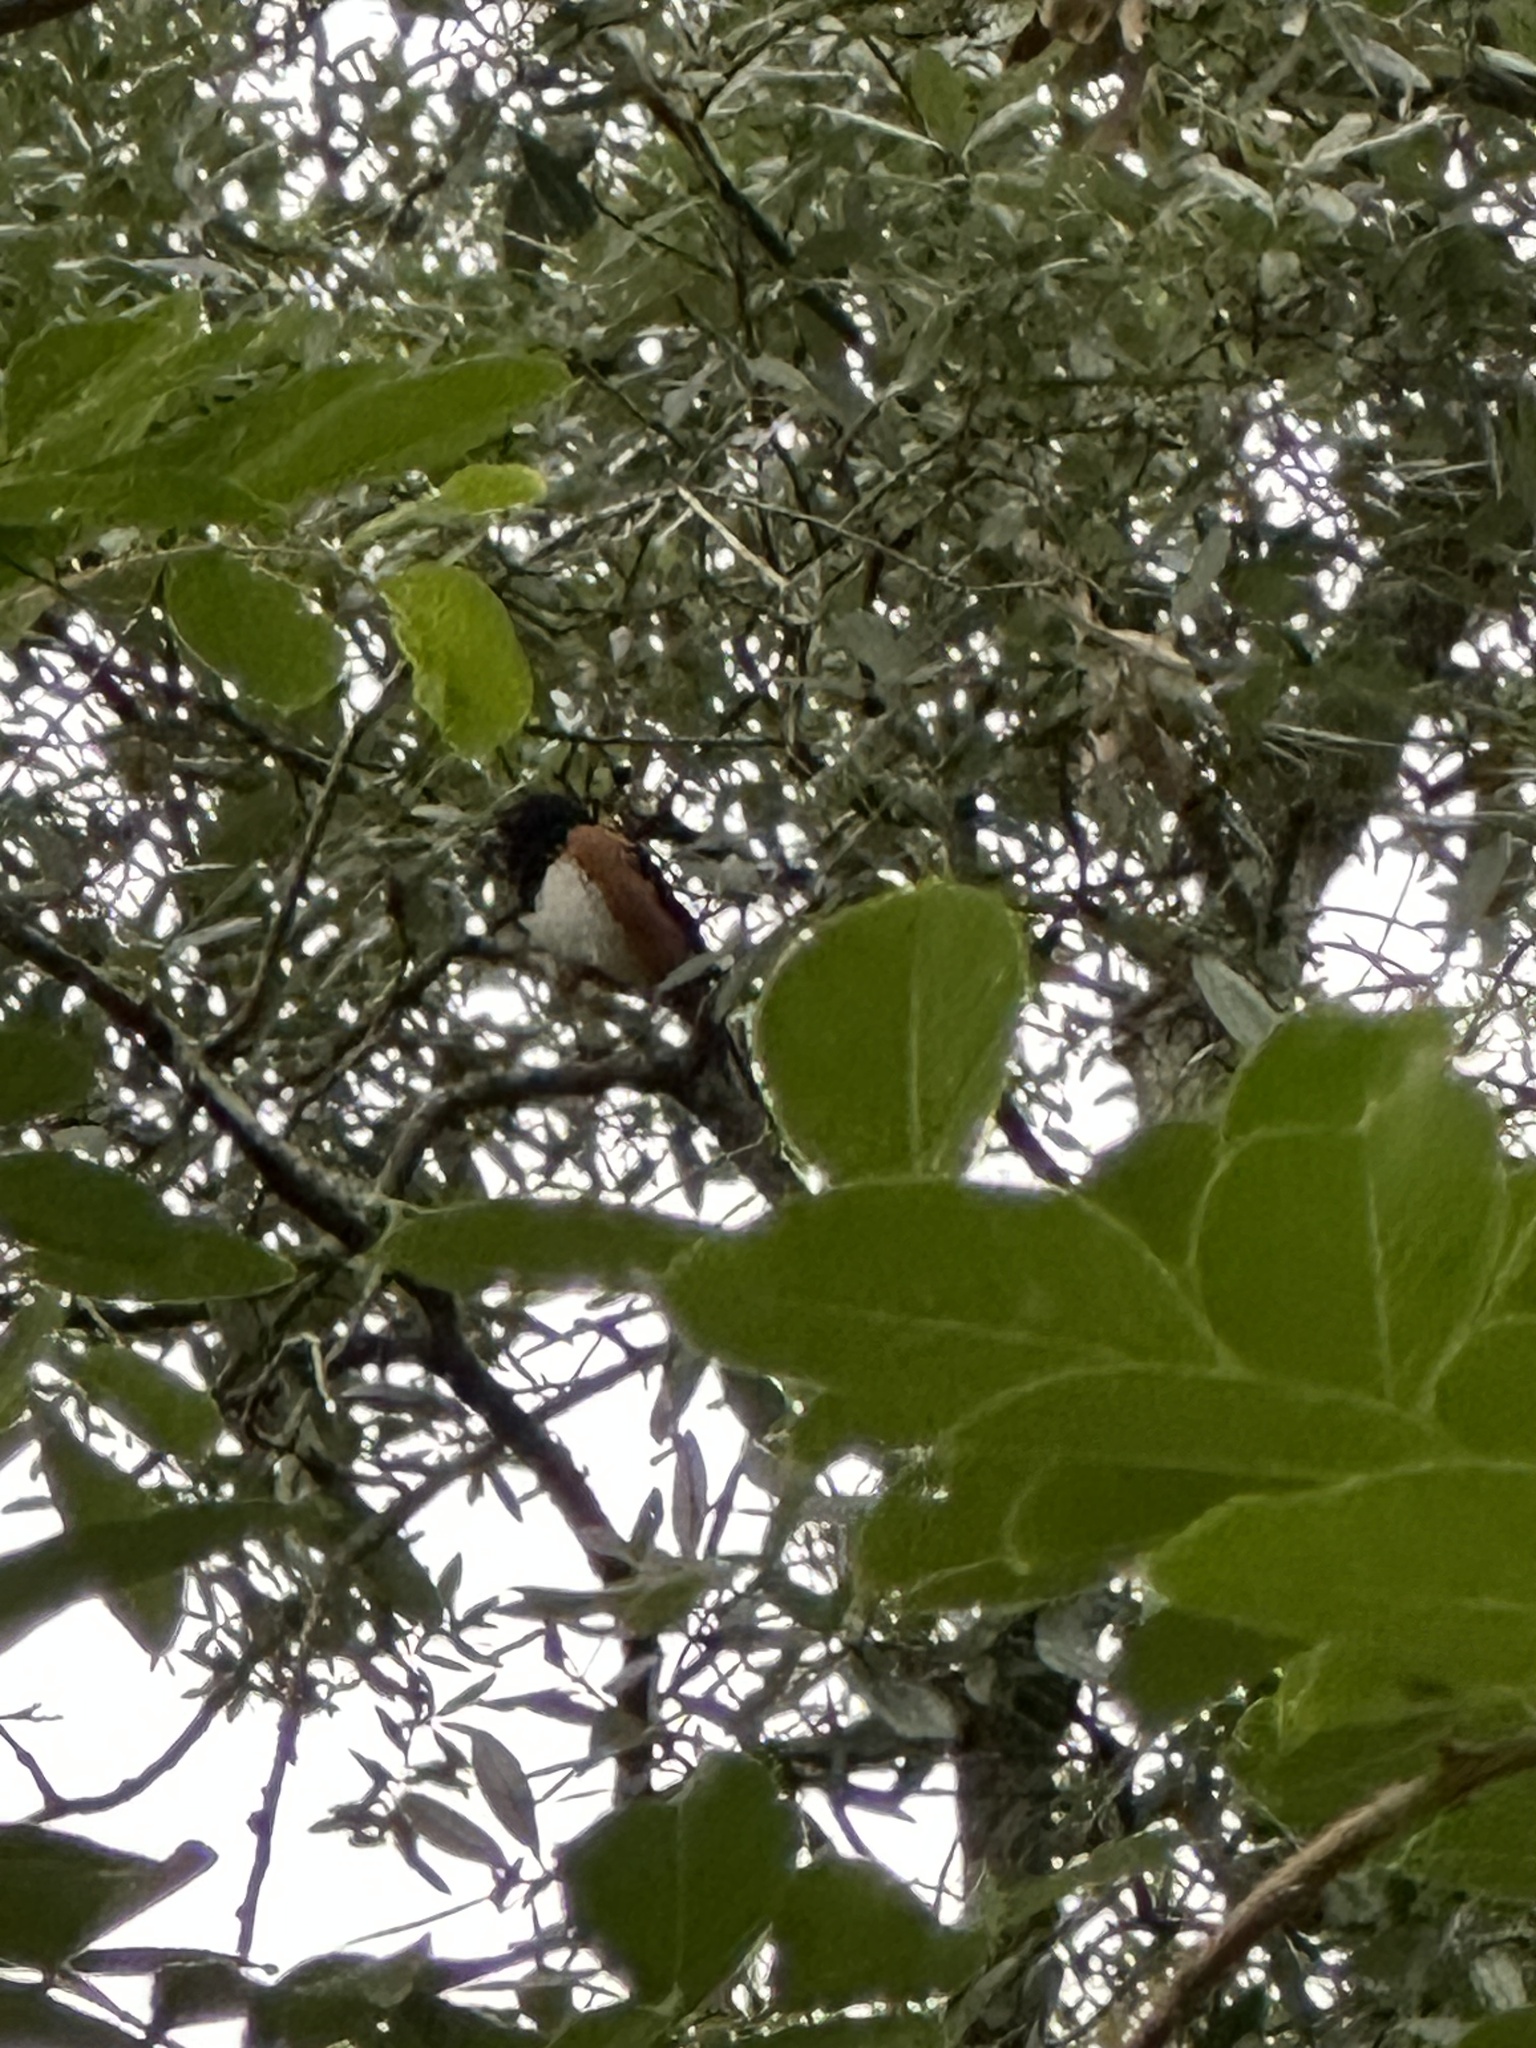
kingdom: Animalia
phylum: Chordata
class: Aves
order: Passeriformes
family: Passerellidae
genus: Pipilo
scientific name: Pipilo erythrophthalmus
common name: Eastern towhee
